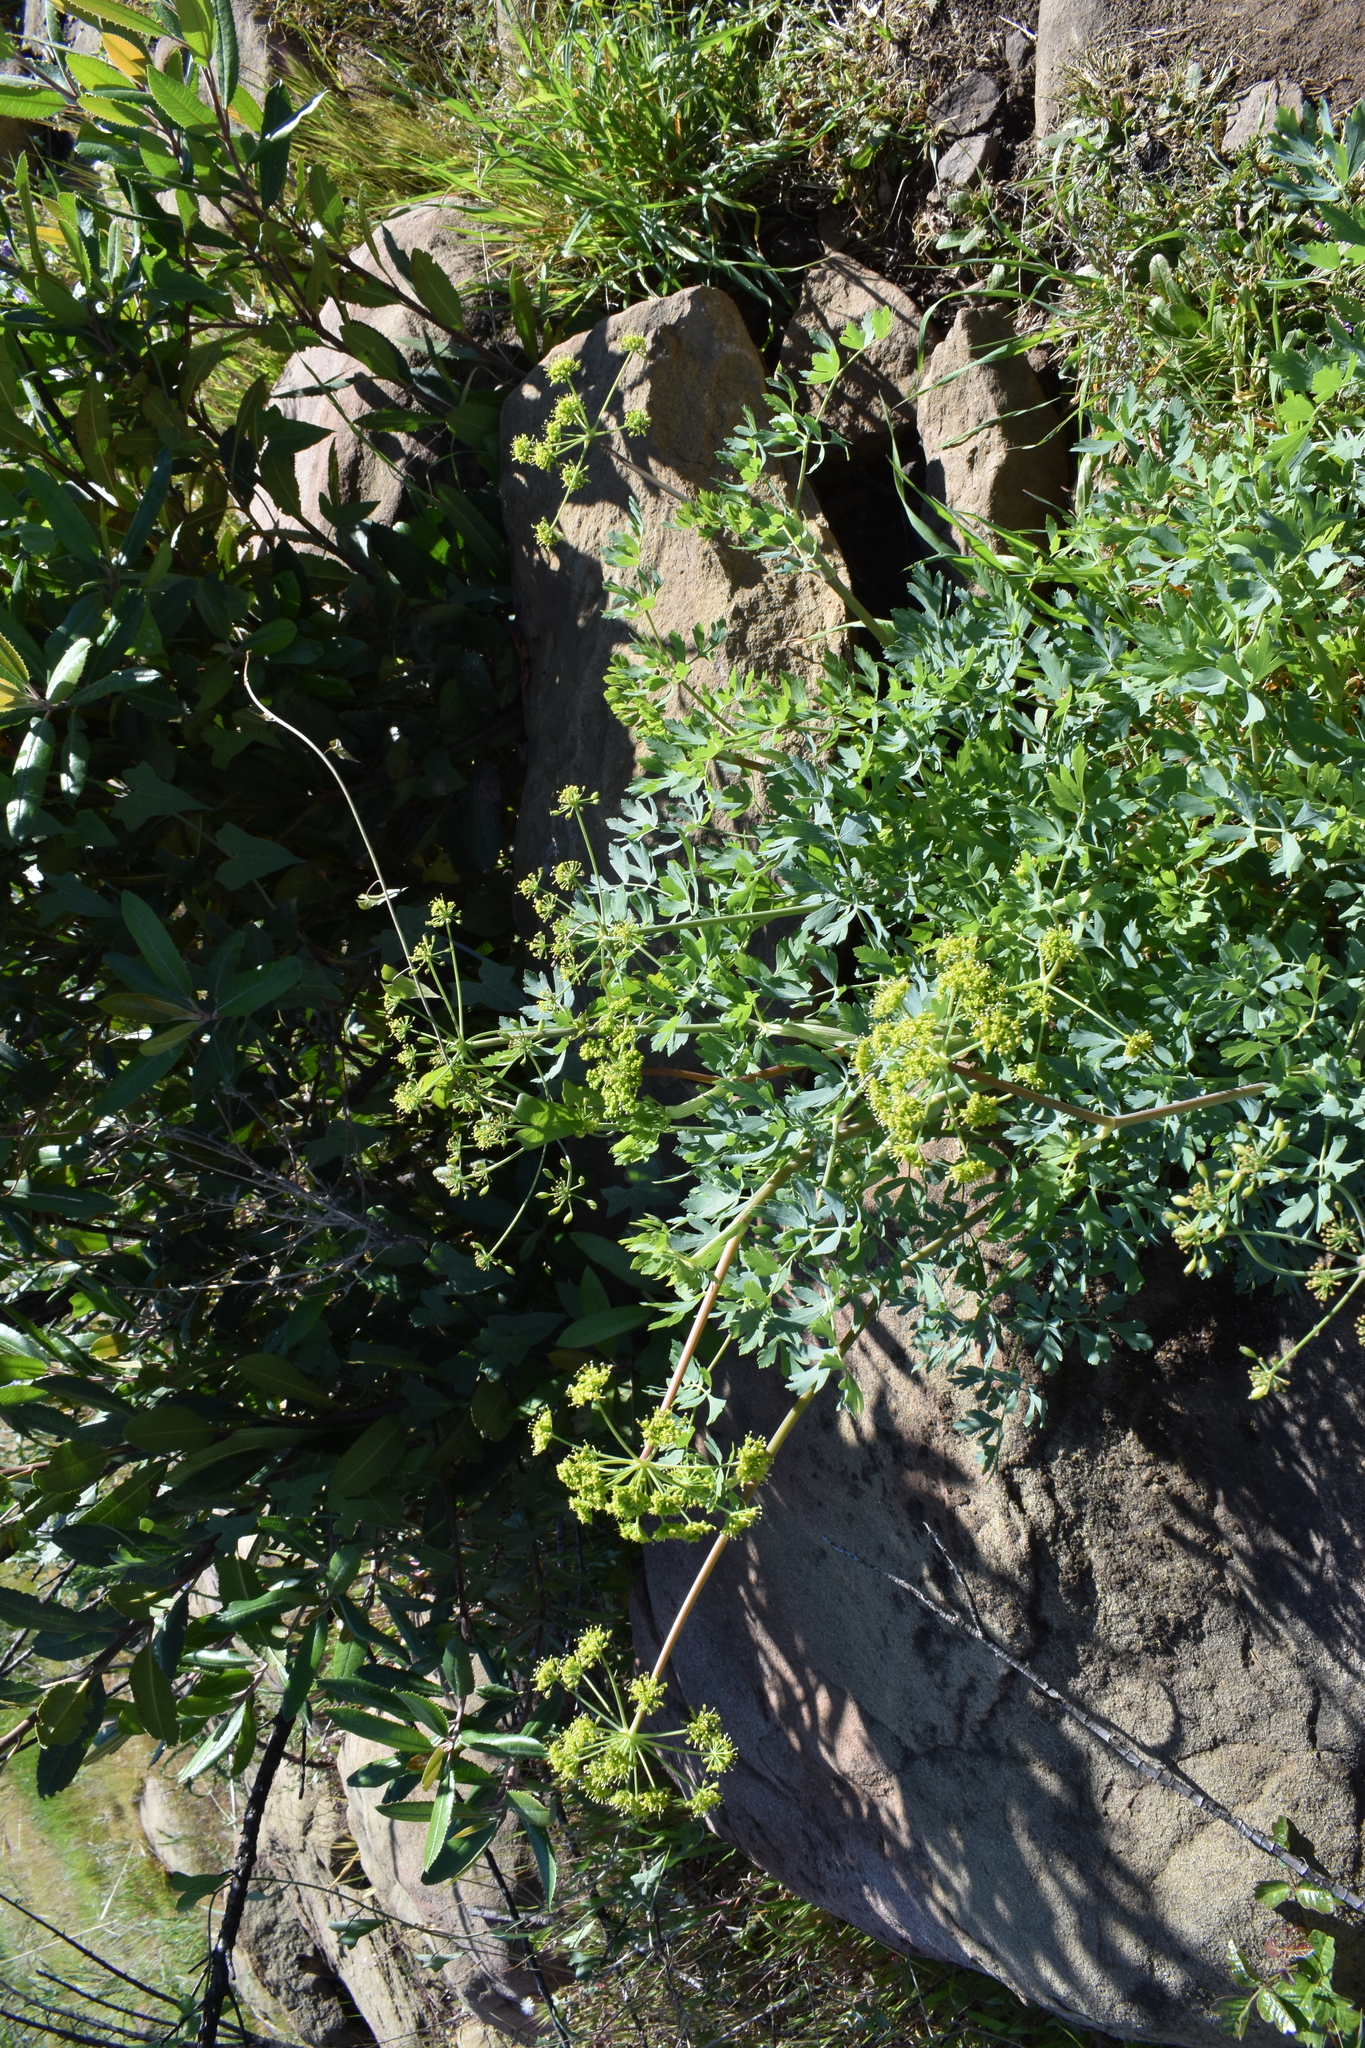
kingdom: Plantae
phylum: Tracheophyta
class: Magnoliopsida
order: Apiales
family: Apiaceae
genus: Lomatium
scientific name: Lomatium californicum
